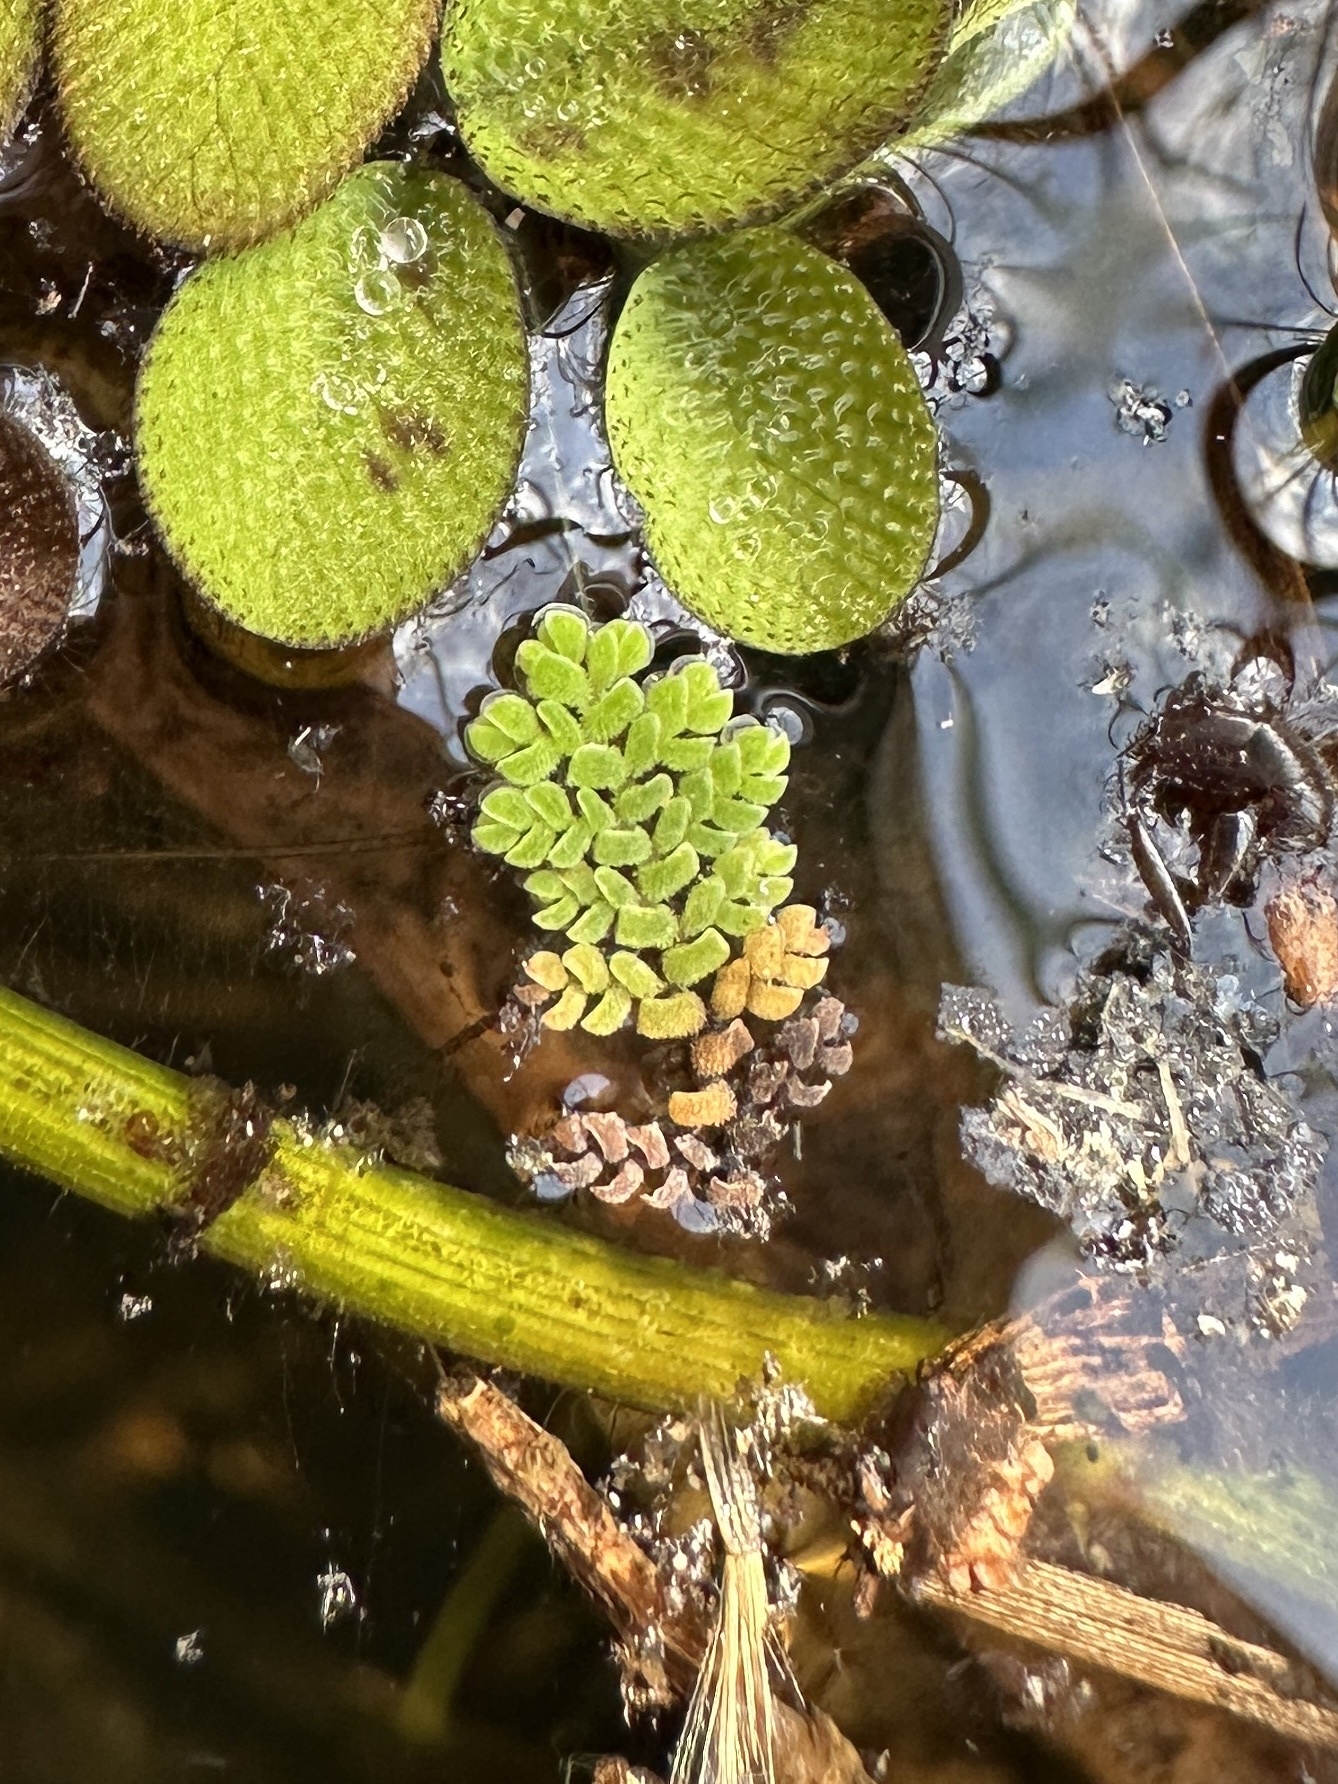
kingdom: Plantae
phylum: Tracheophyta
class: Polypodiopsida
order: Salviniales
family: Salviniaceae
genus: Azolla
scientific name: Azolla pinnata
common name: Ferny azolla
